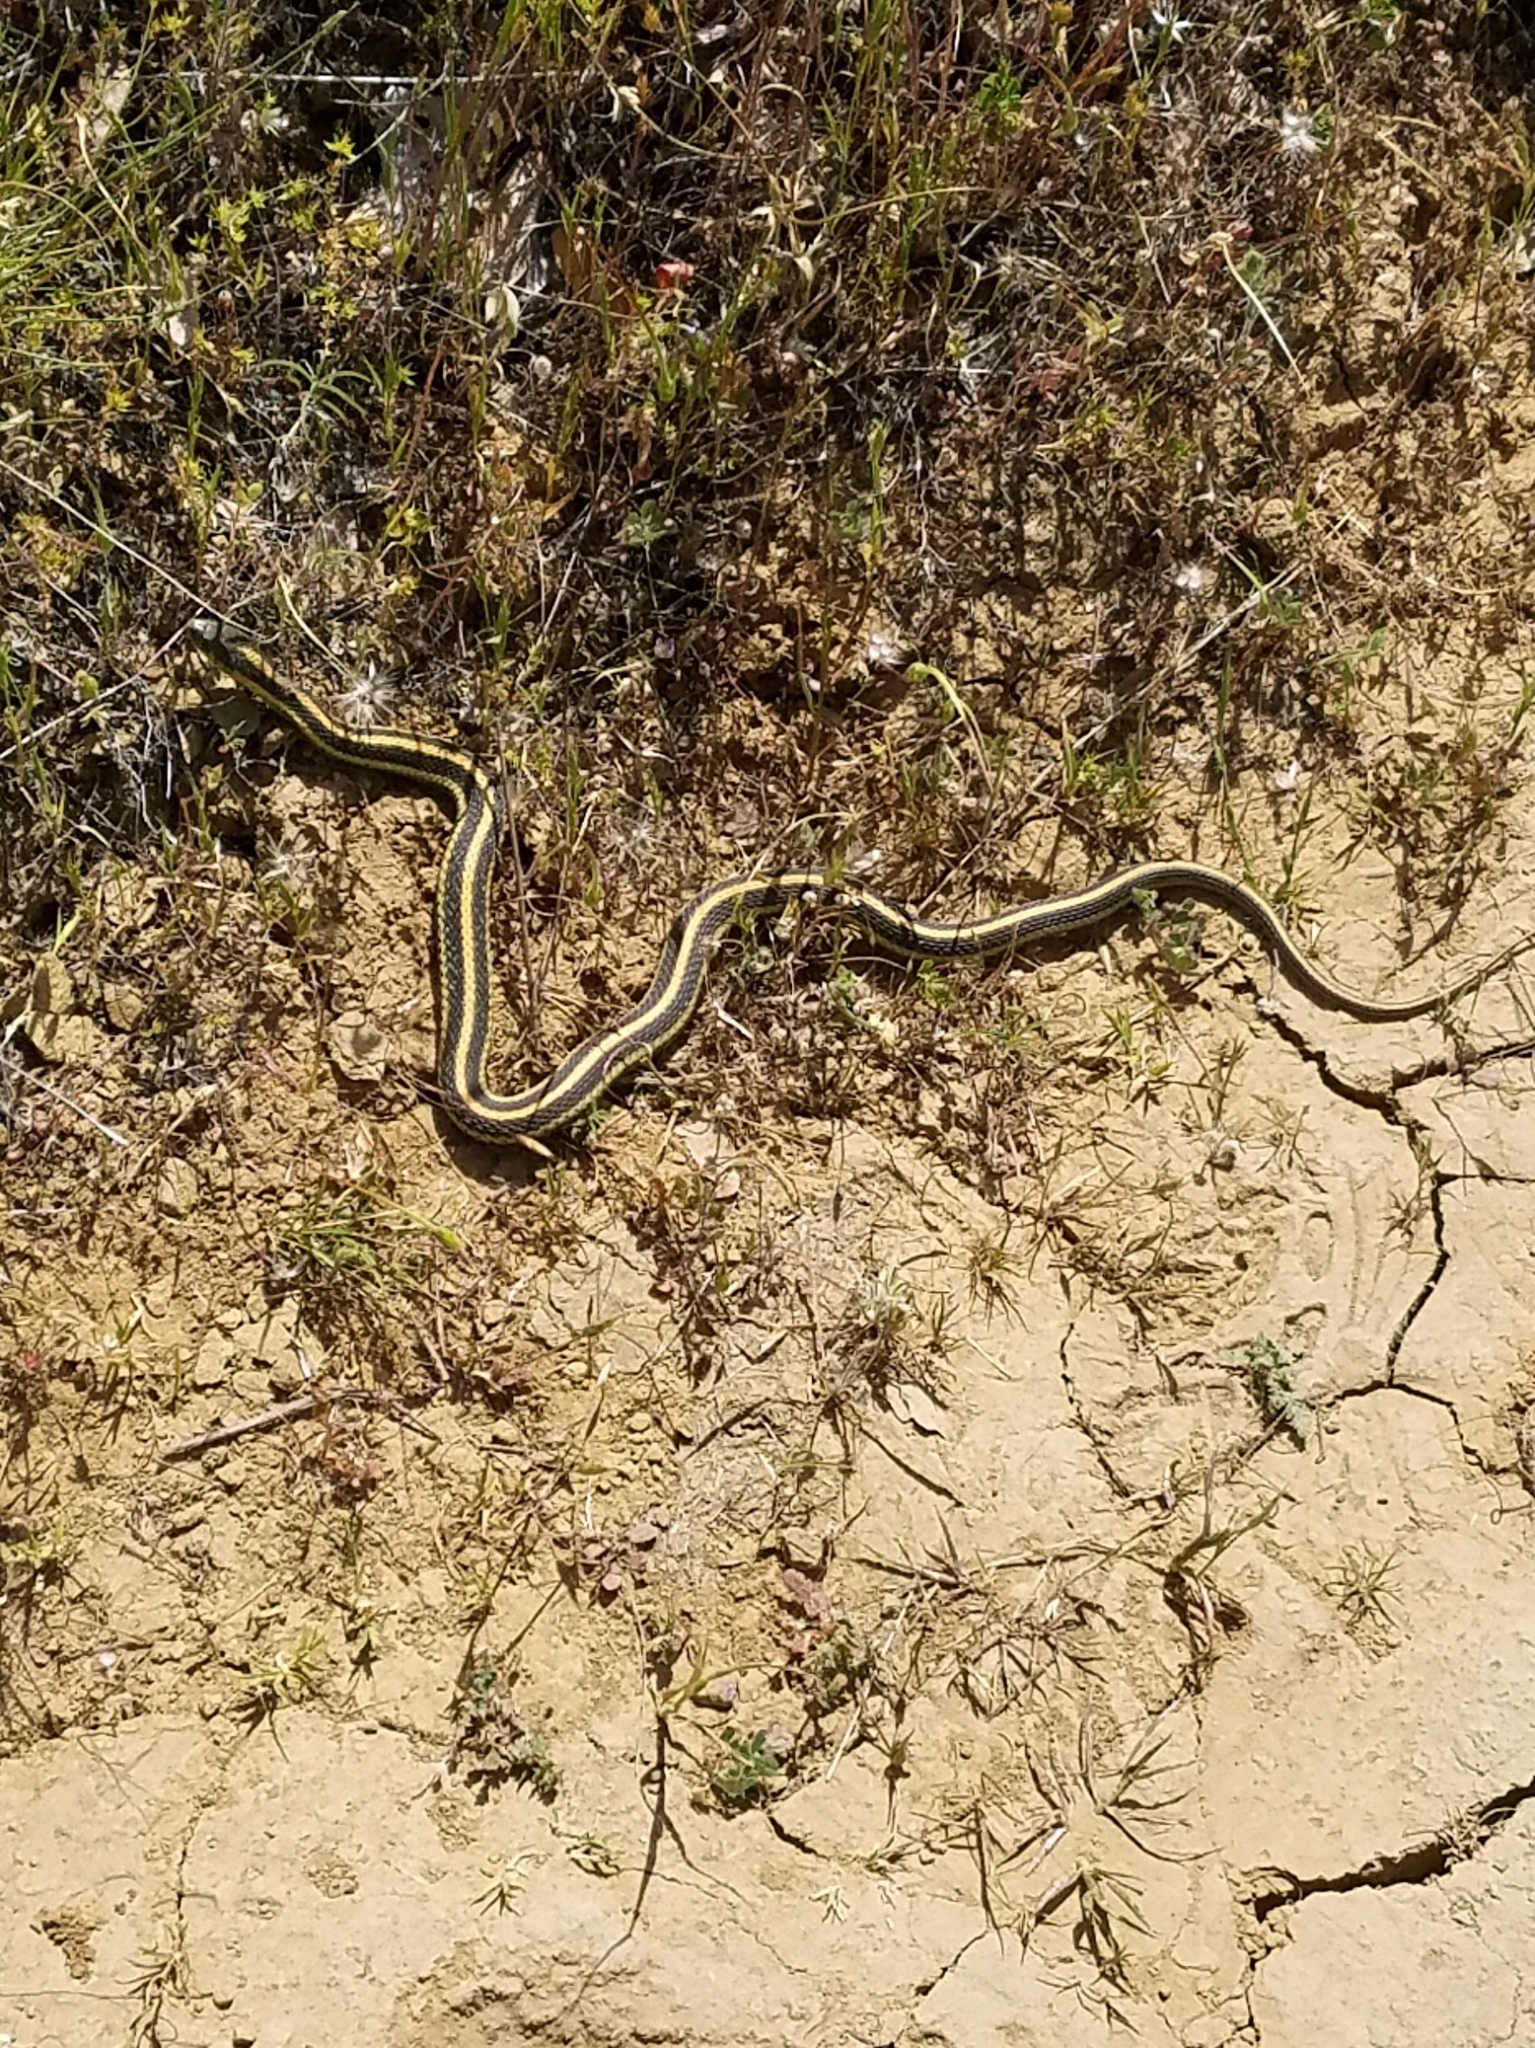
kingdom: Animalia
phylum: Chordata
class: Squamata
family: Colubridae
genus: Thamnophis
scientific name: Thamnophis atratus
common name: Pacific coast aquatic garter snake
